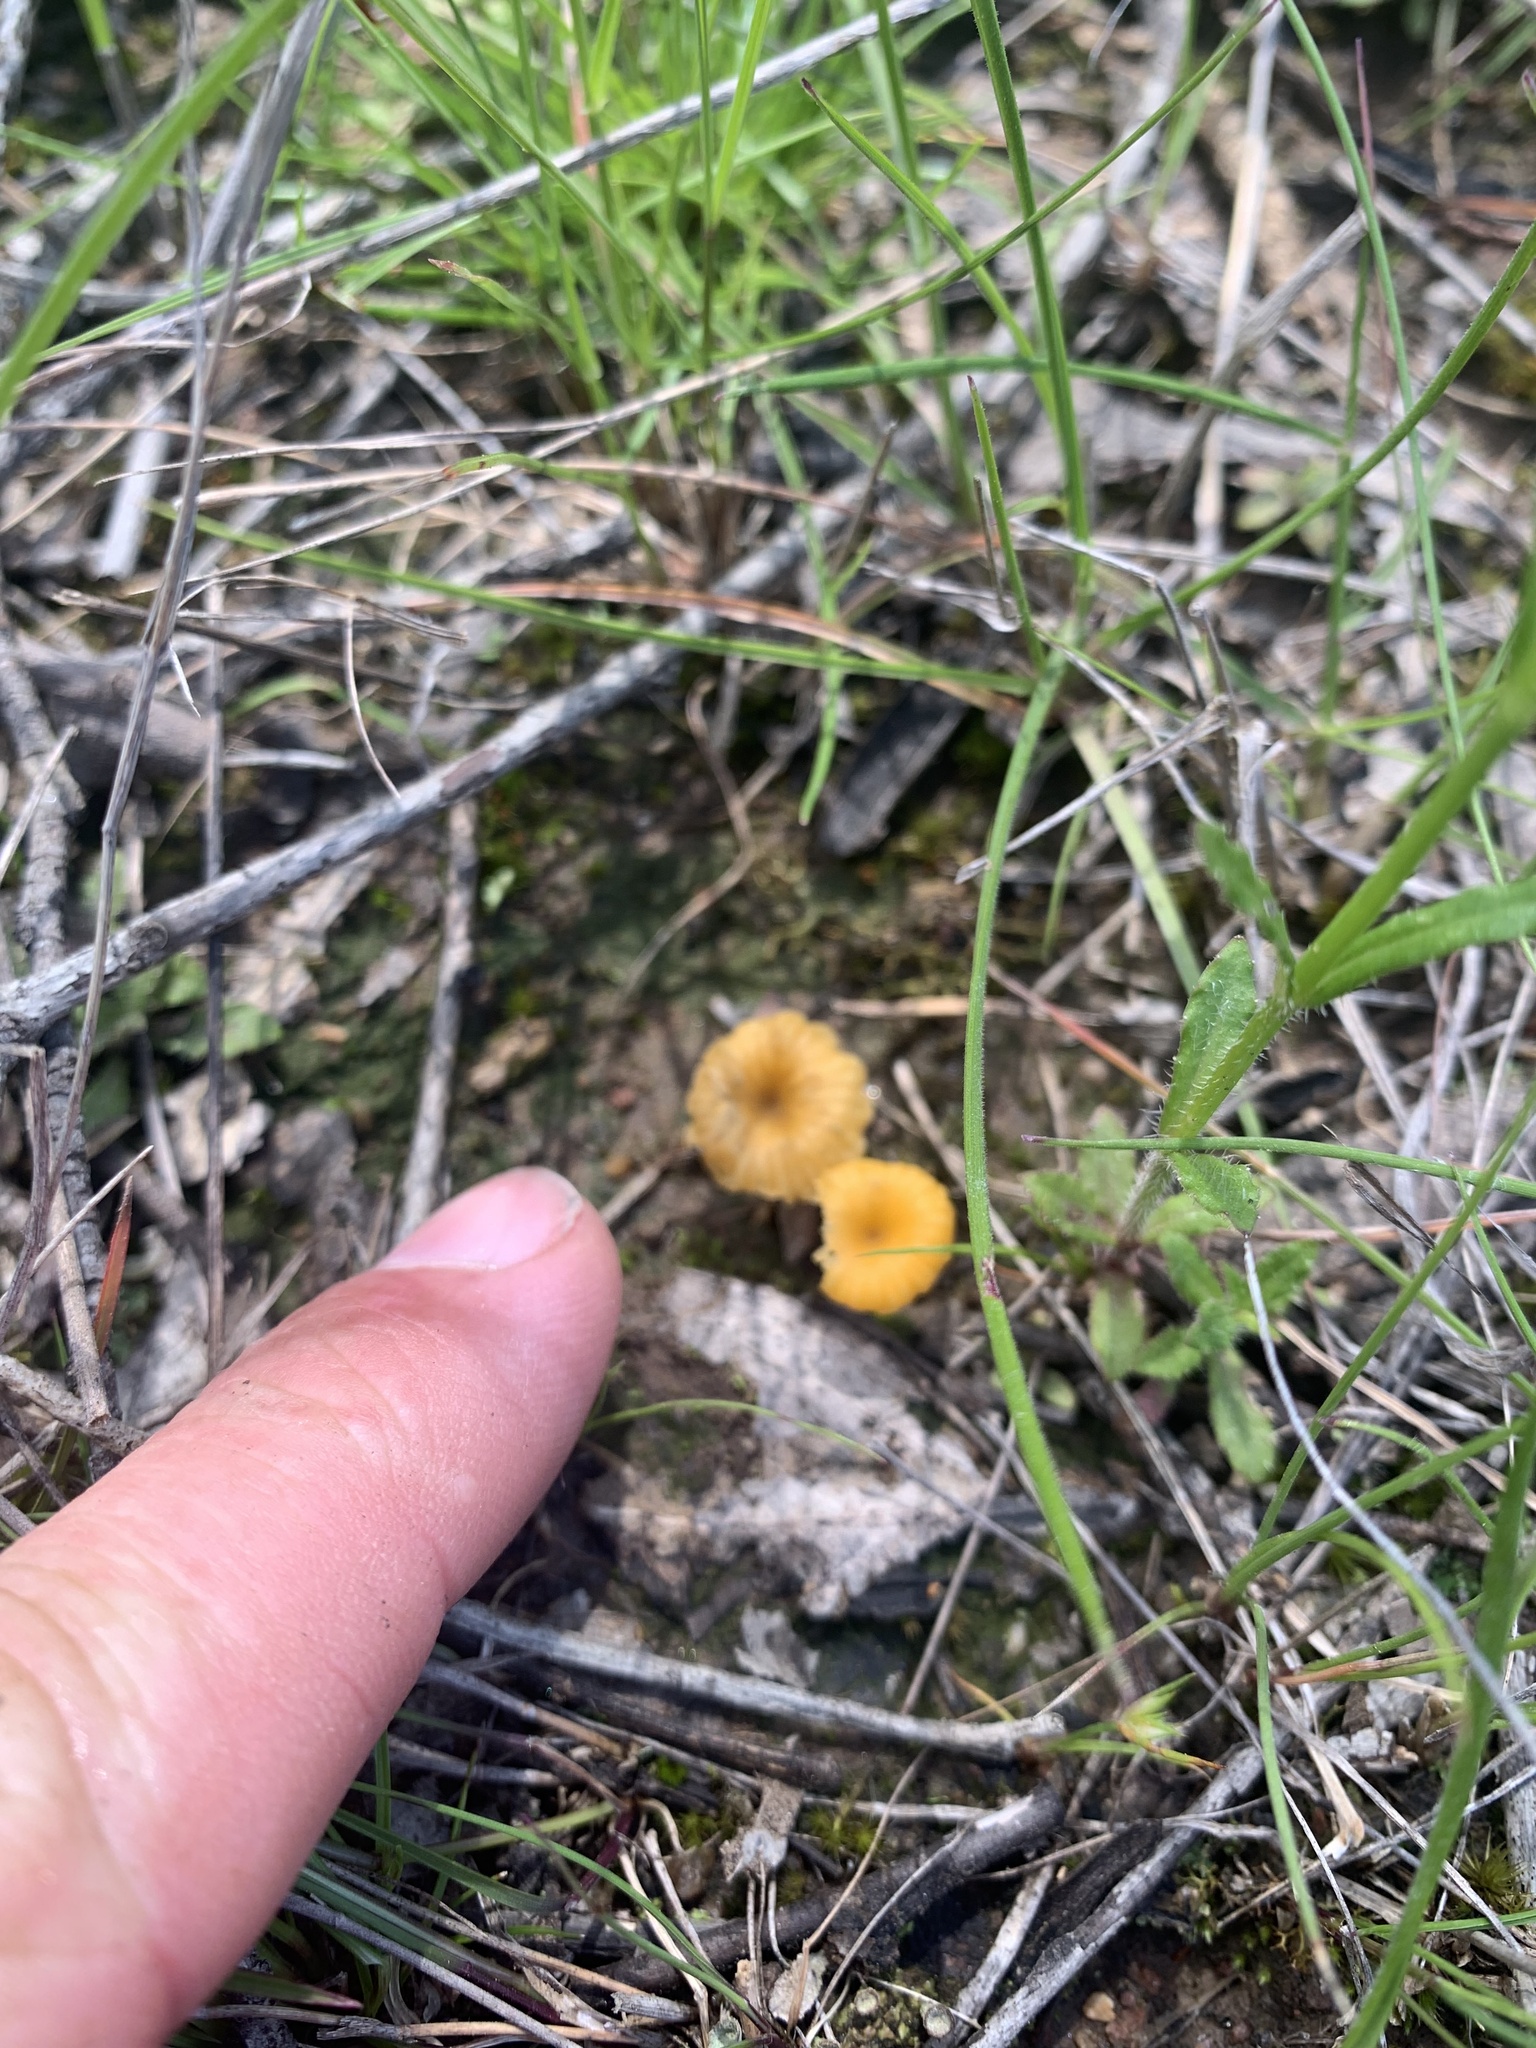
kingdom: Fungi
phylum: Basidiomycota
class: Agaricomycetes
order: Agaricales
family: Hygrophoraceae
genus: Lichenomphalia
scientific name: Lichenomphalia chromacea
